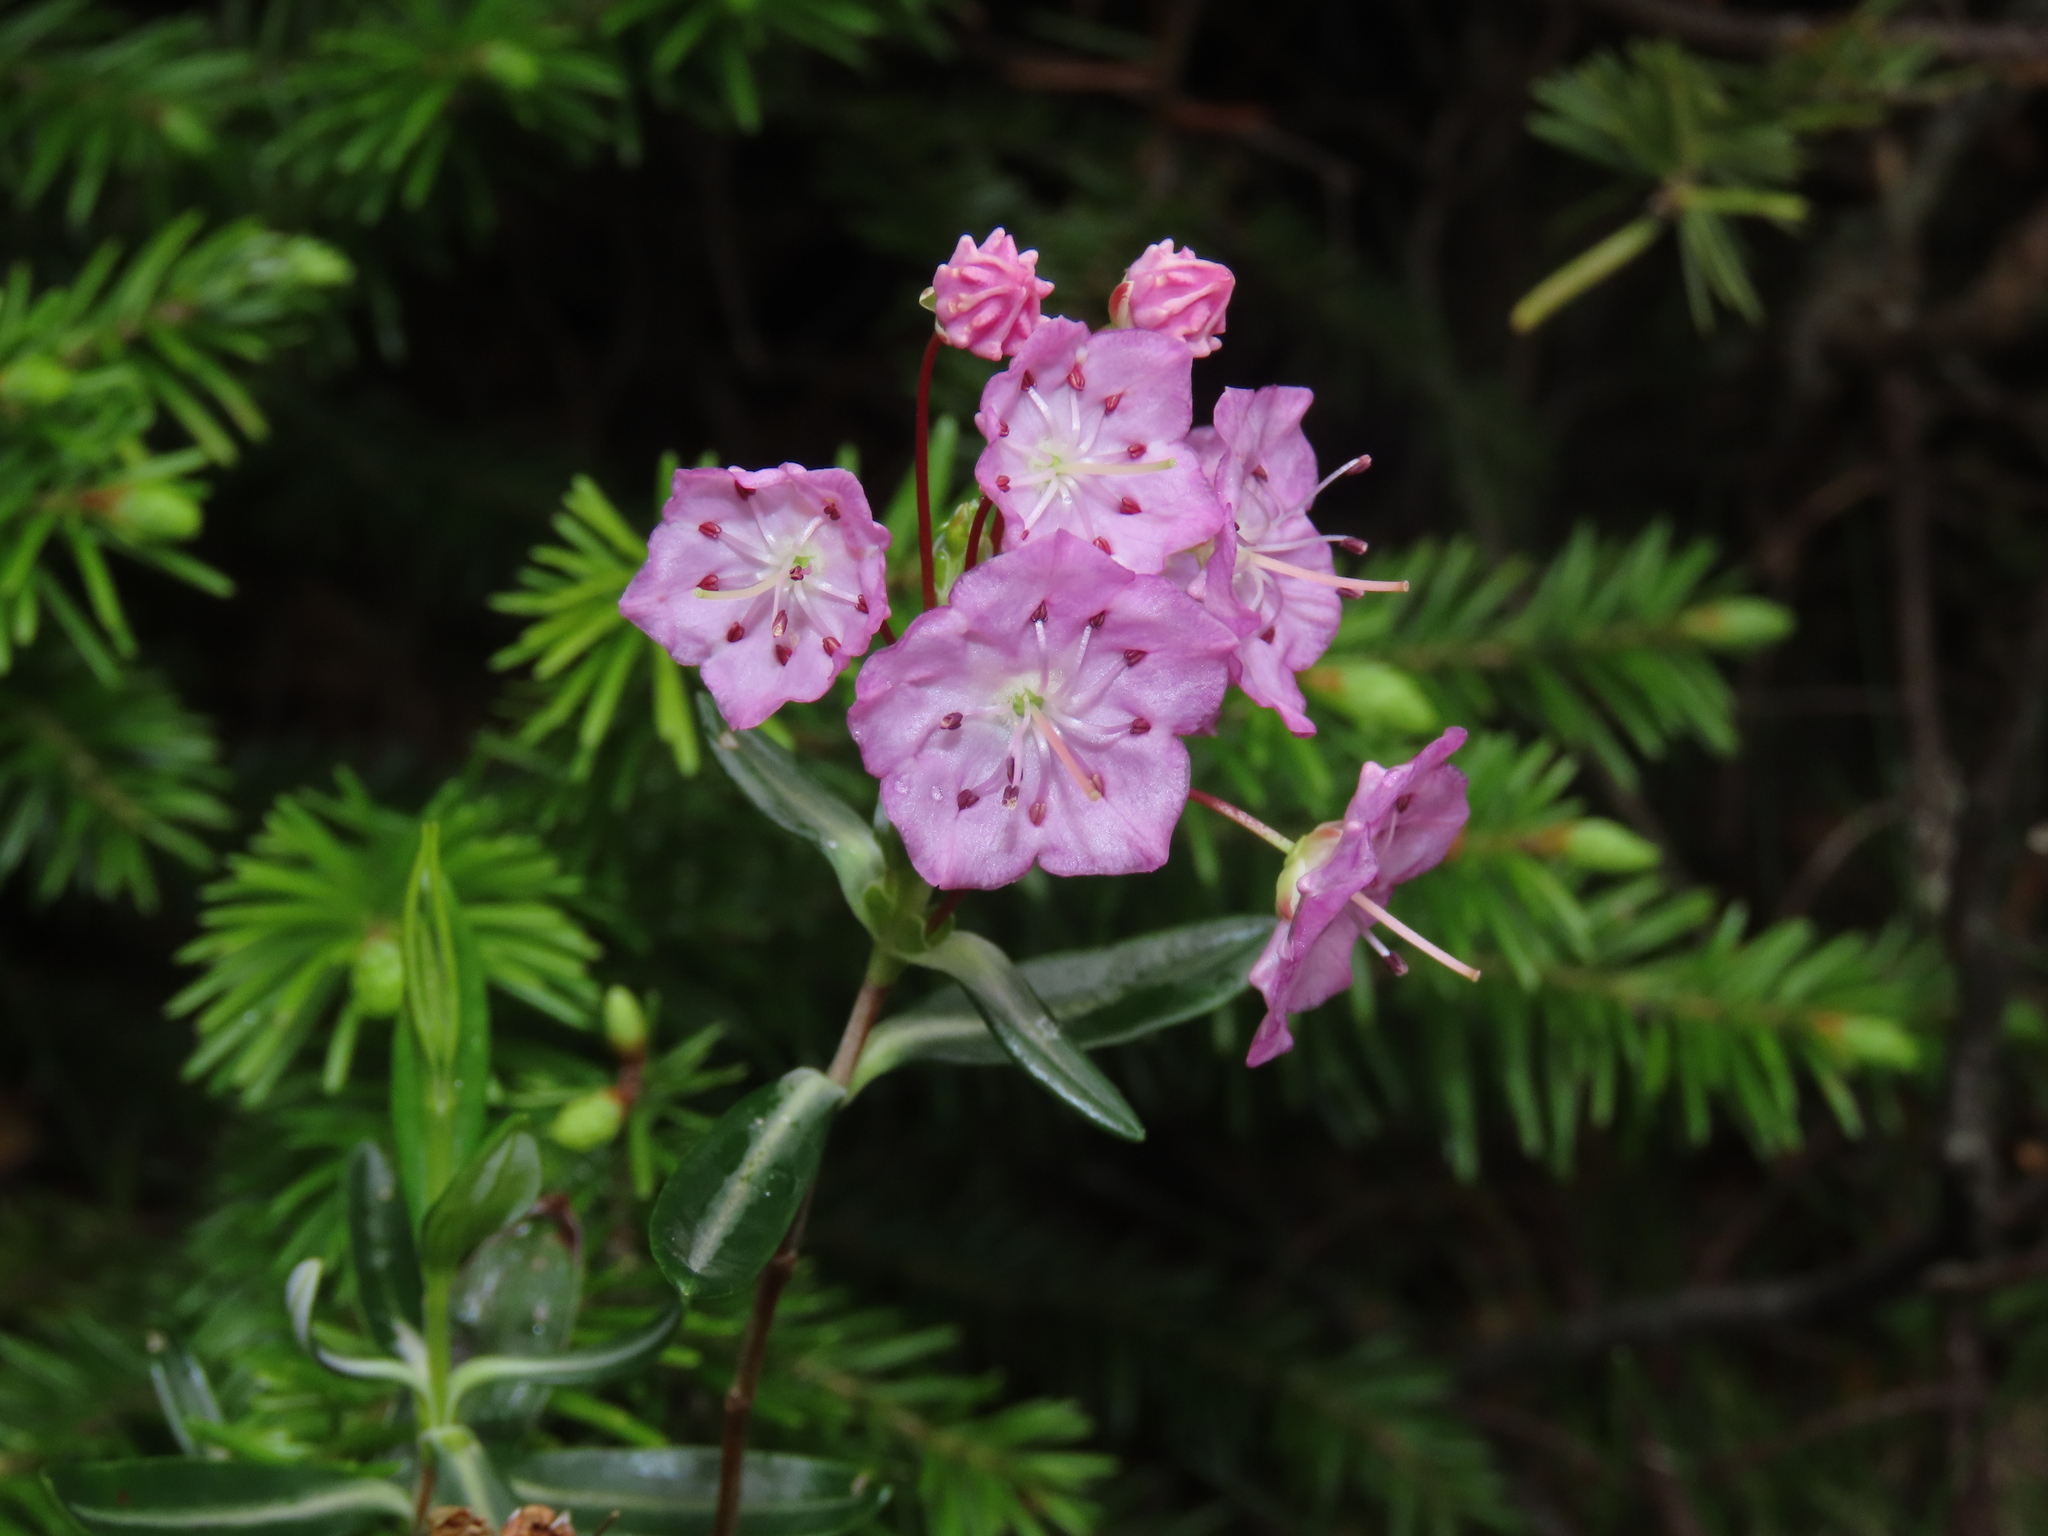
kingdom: Plantae
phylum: Tracheophyta
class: Magnoliopsida
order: Ericales
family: Ericaceae
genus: Kalmia
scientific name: Kalmia polifolia
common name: Bog-laurel
